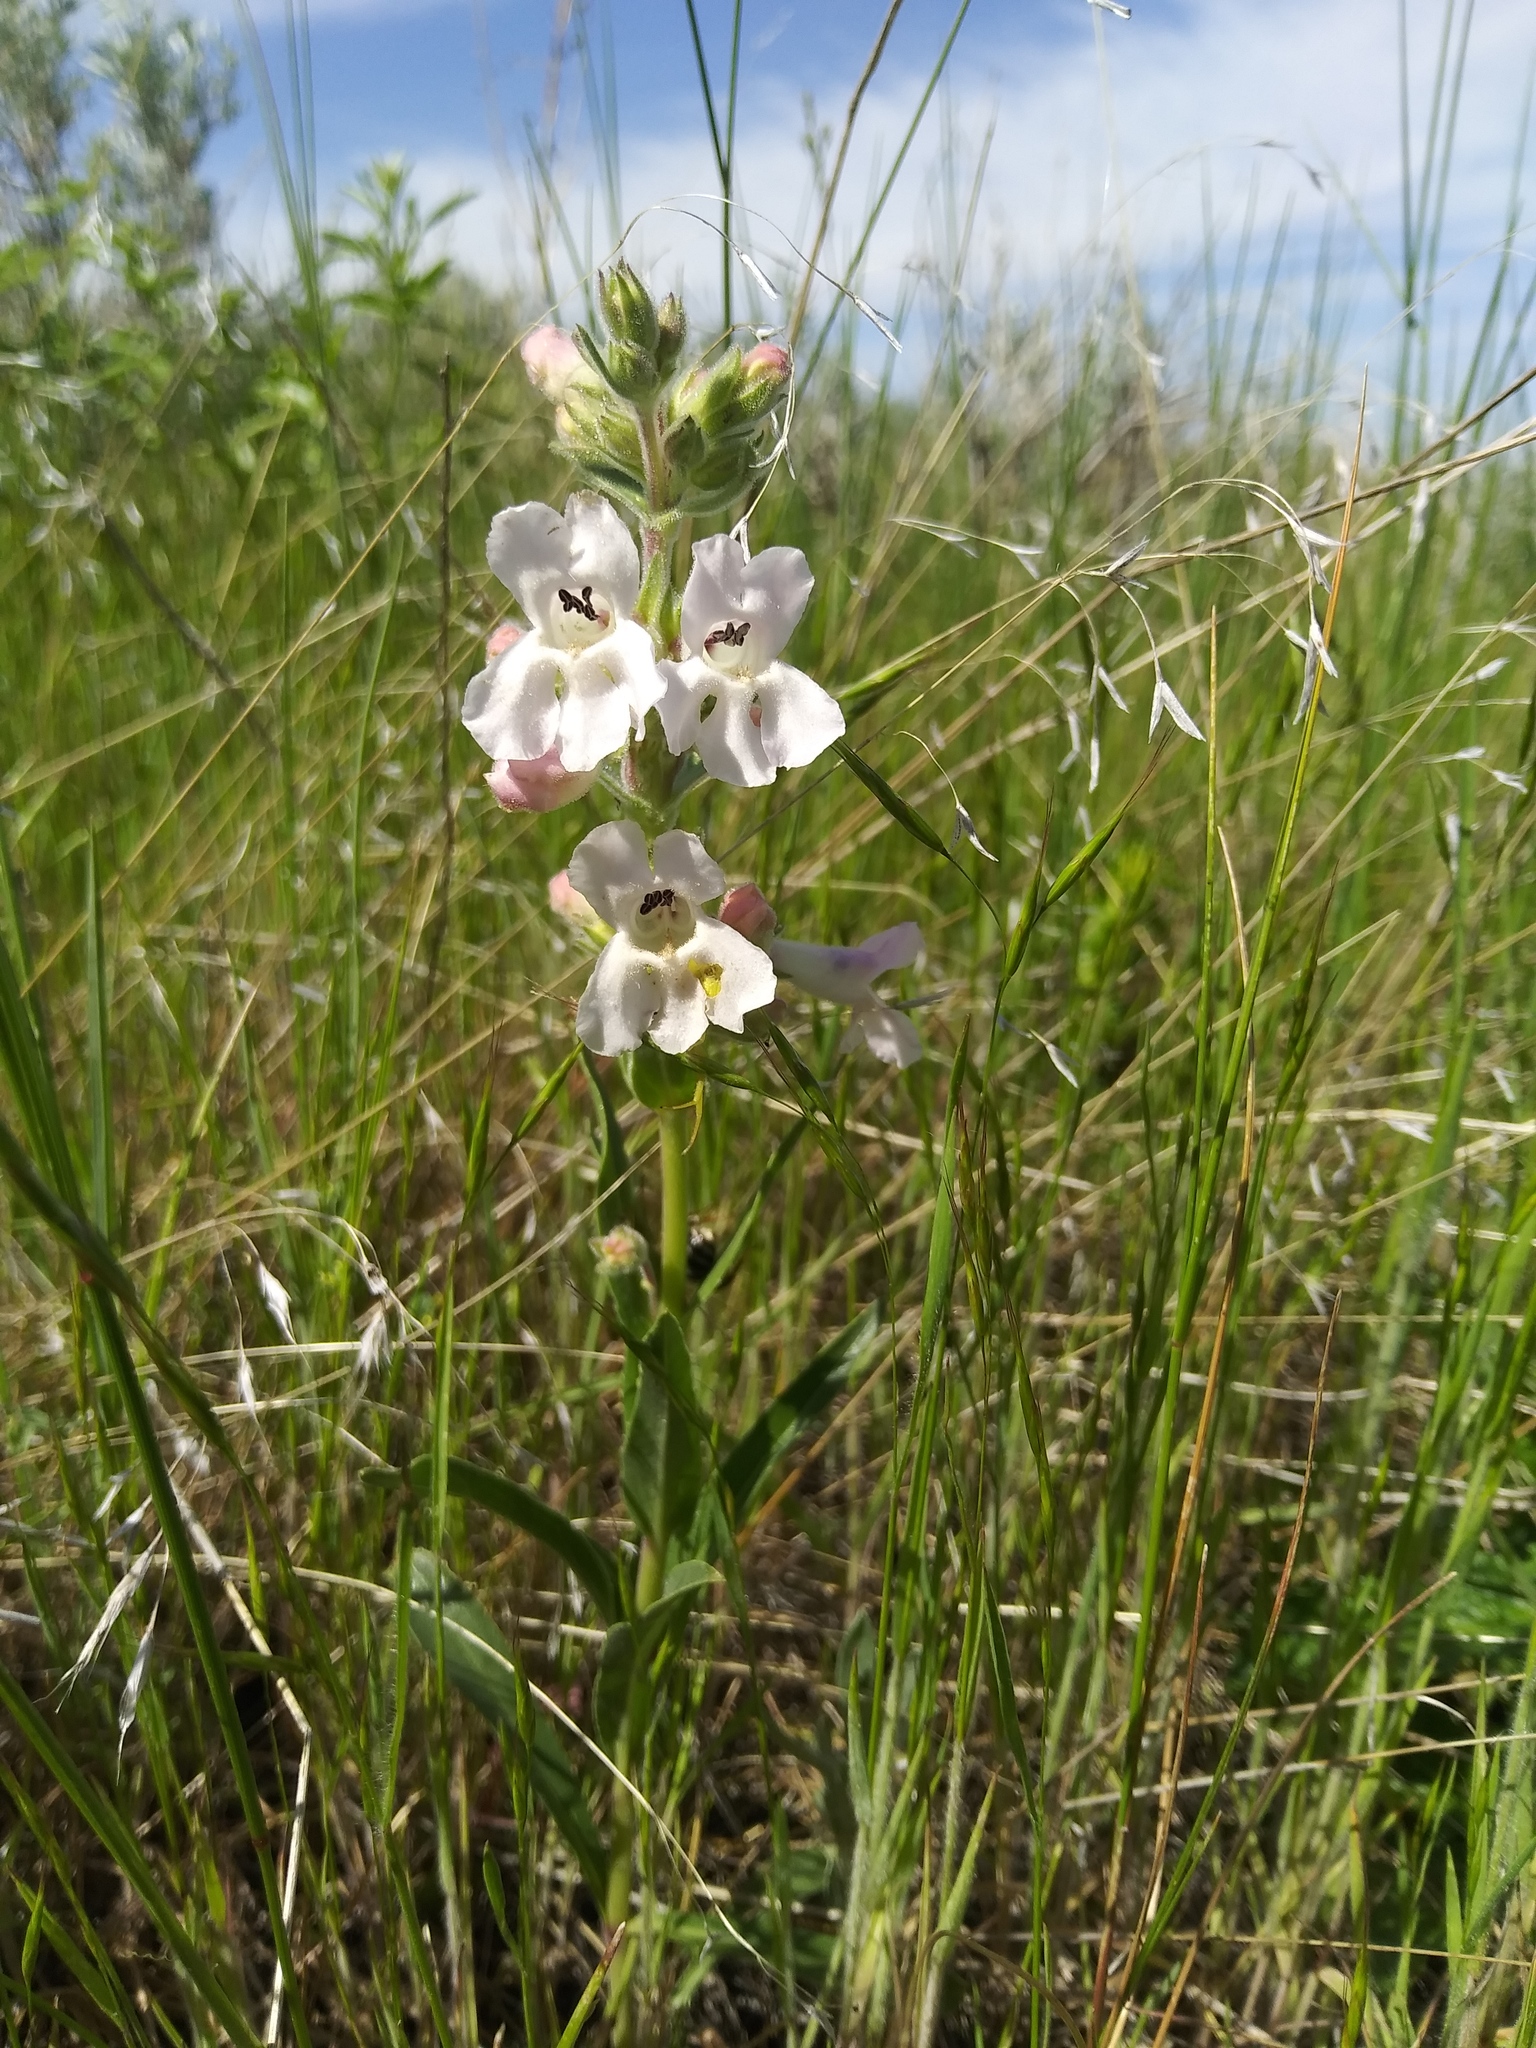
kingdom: Plantae
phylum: Tracheophyta
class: Magnoliopsida
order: Lamiales
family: Plantaginaceae
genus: Penstemon
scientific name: Penstemon albidus
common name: White beardtongue
